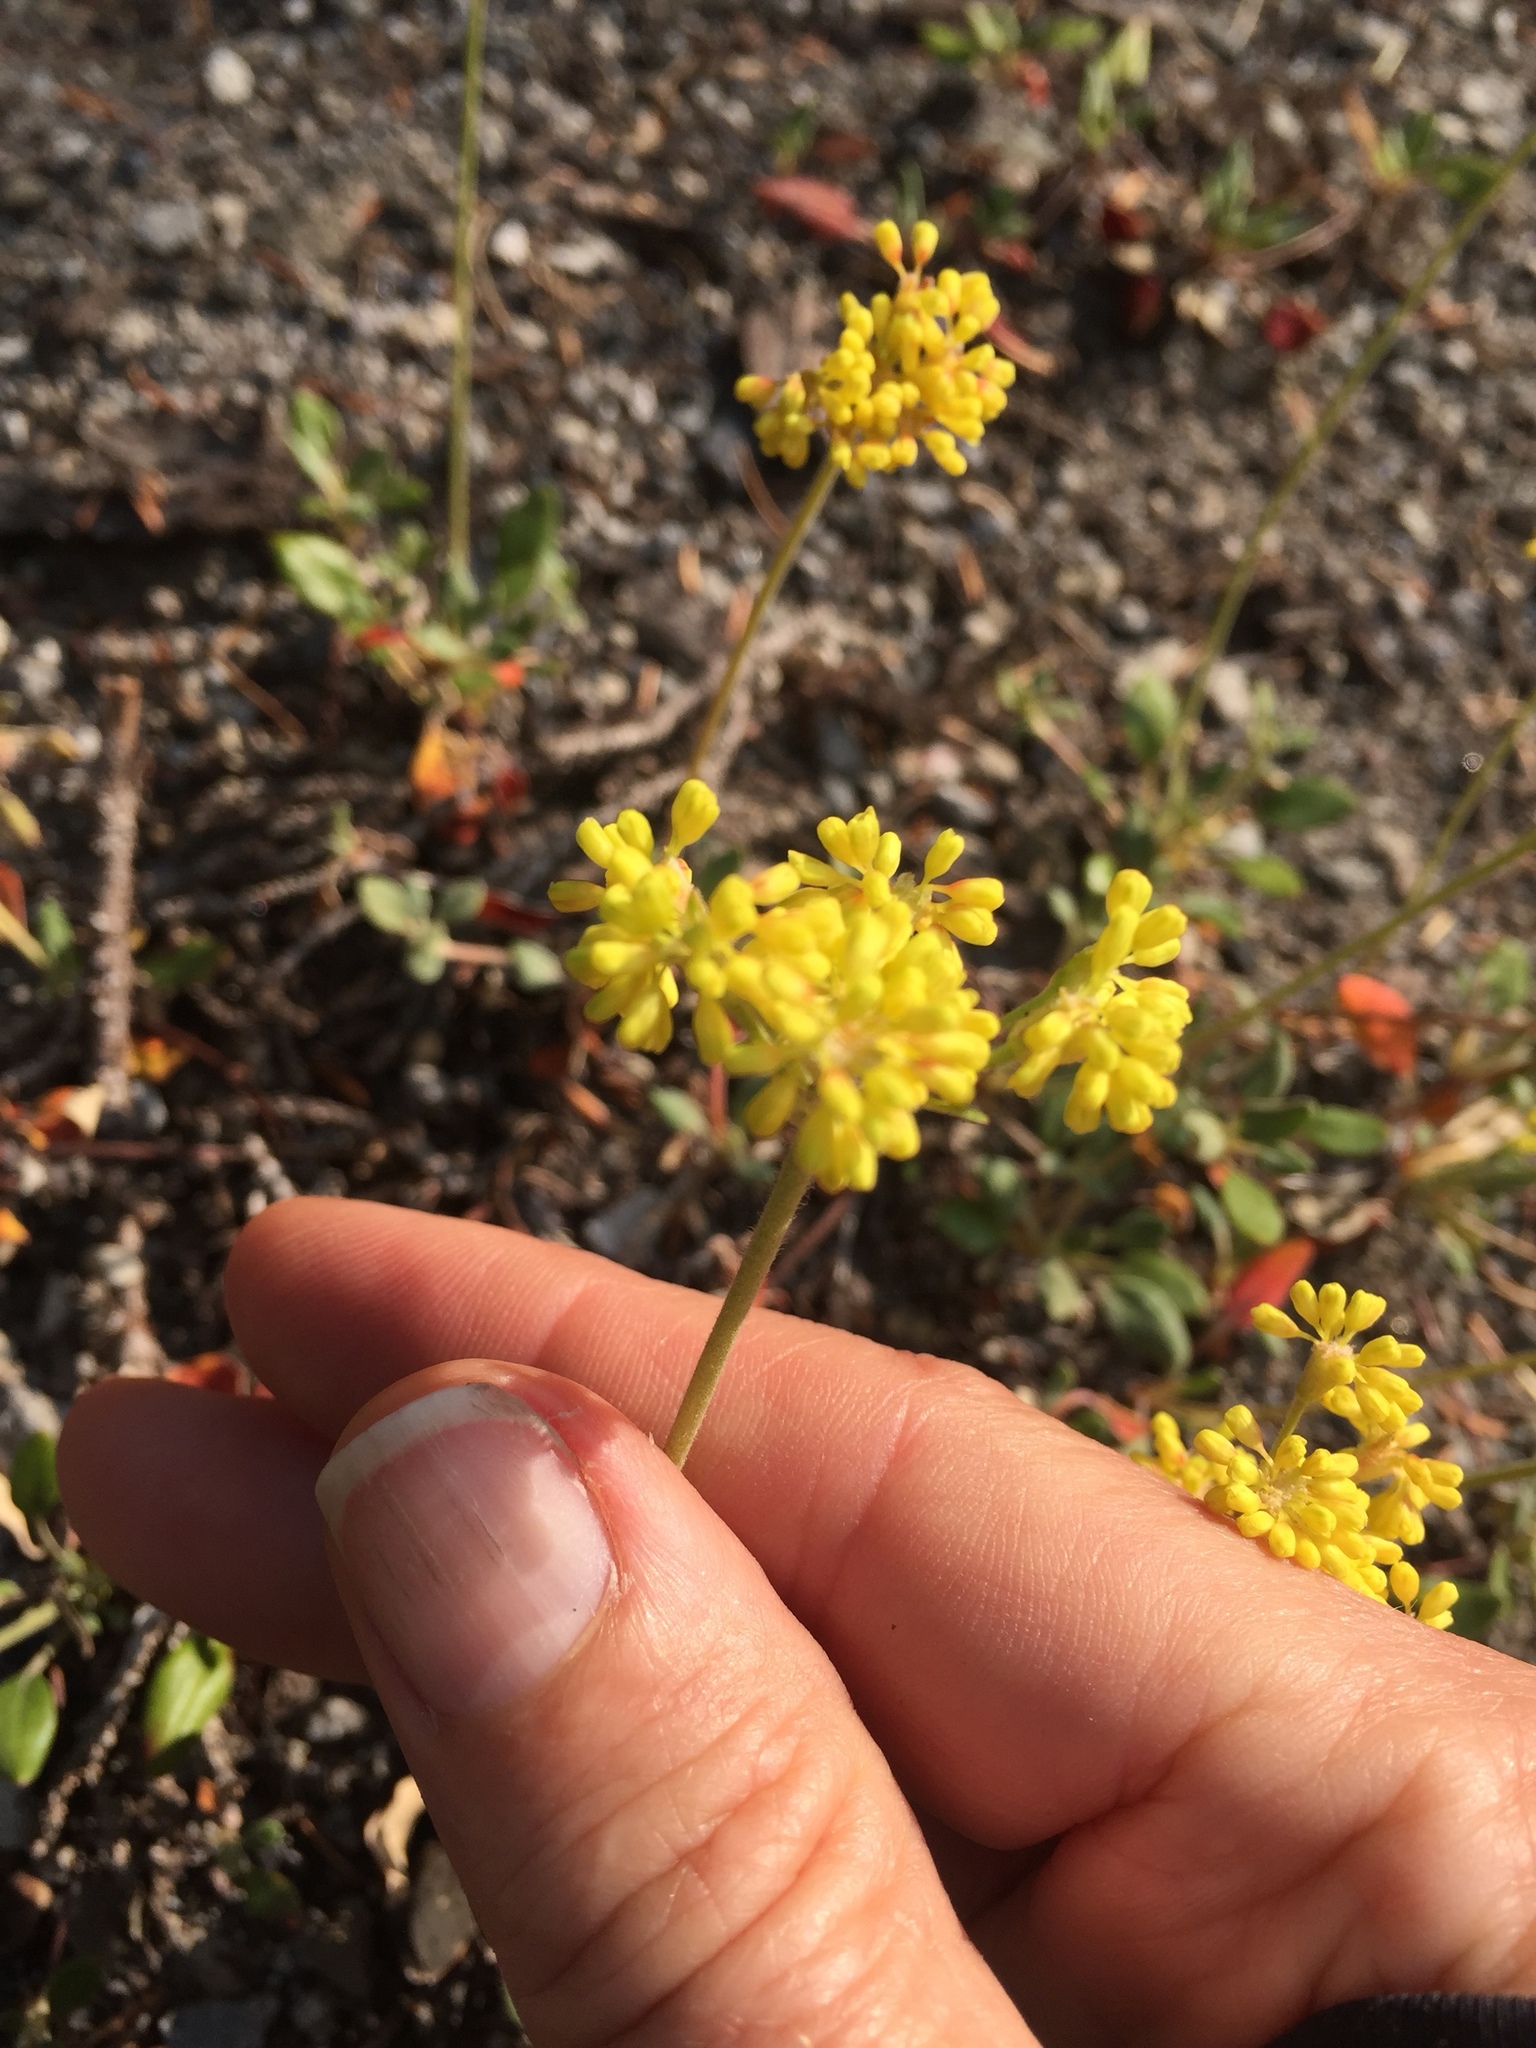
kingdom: Plantae
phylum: Tracheophyta
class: Magnoliopsida
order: Caryophyllales
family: Polygonaceae
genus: Eriogonum
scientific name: Eriogonum marifolium
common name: Marum-leaf wild buckwheat
